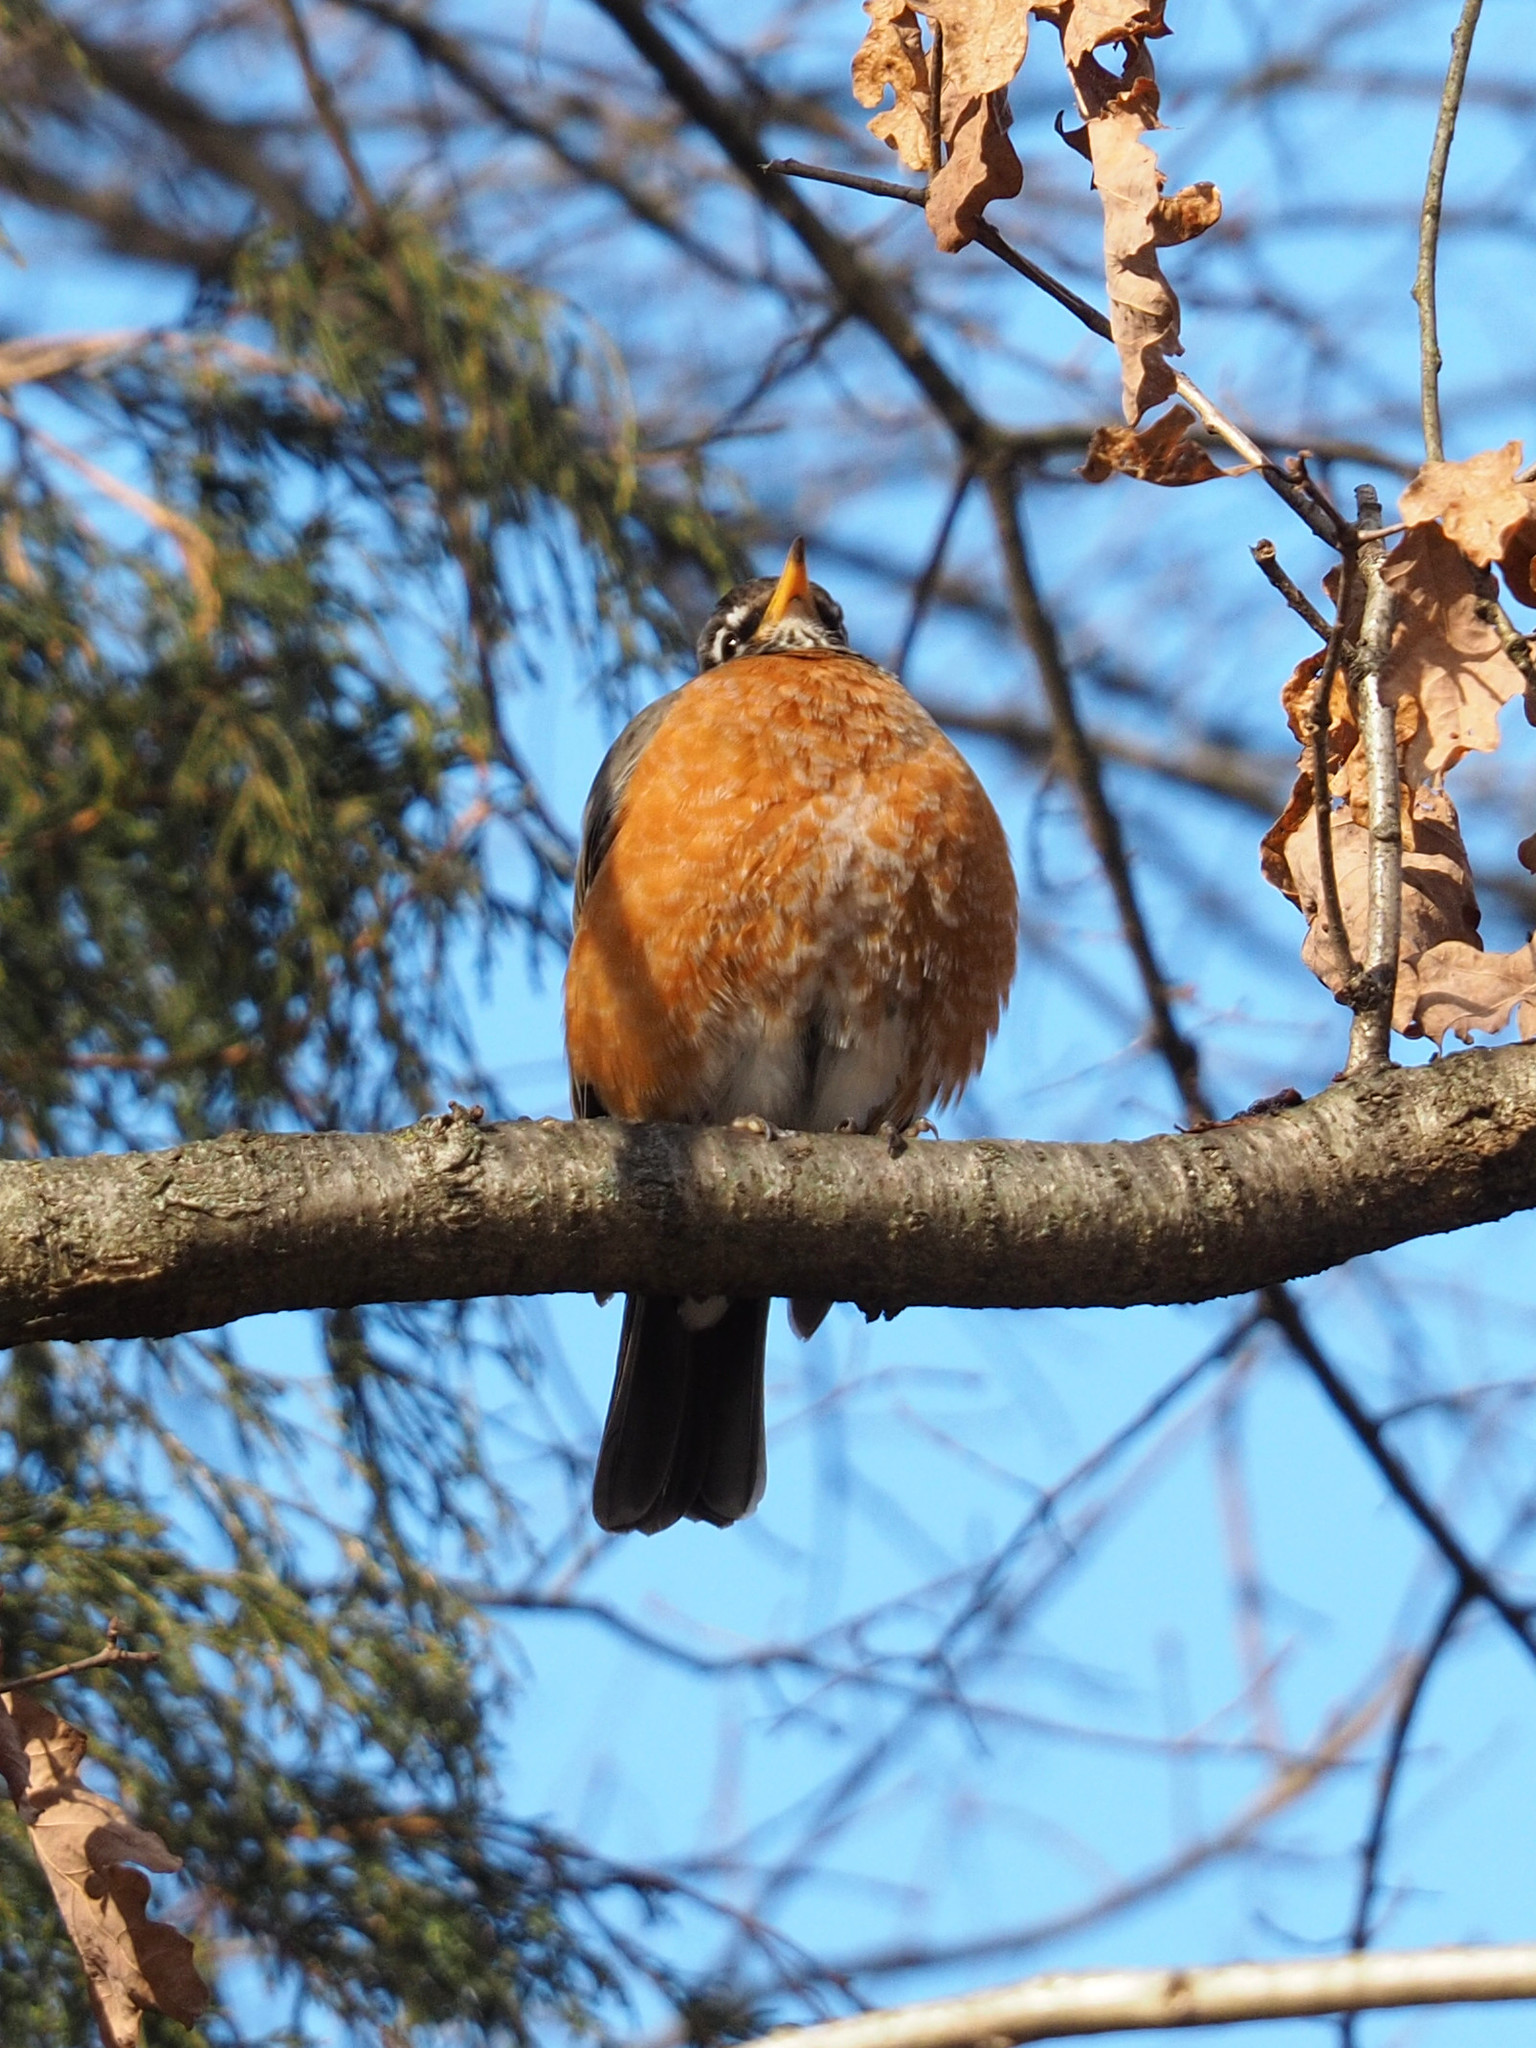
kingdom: Animalia
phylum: Chordata
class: Aves
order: Passeriformes
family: Turdidae
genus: Turdus
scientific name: Turdus migratorius
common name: American robin
